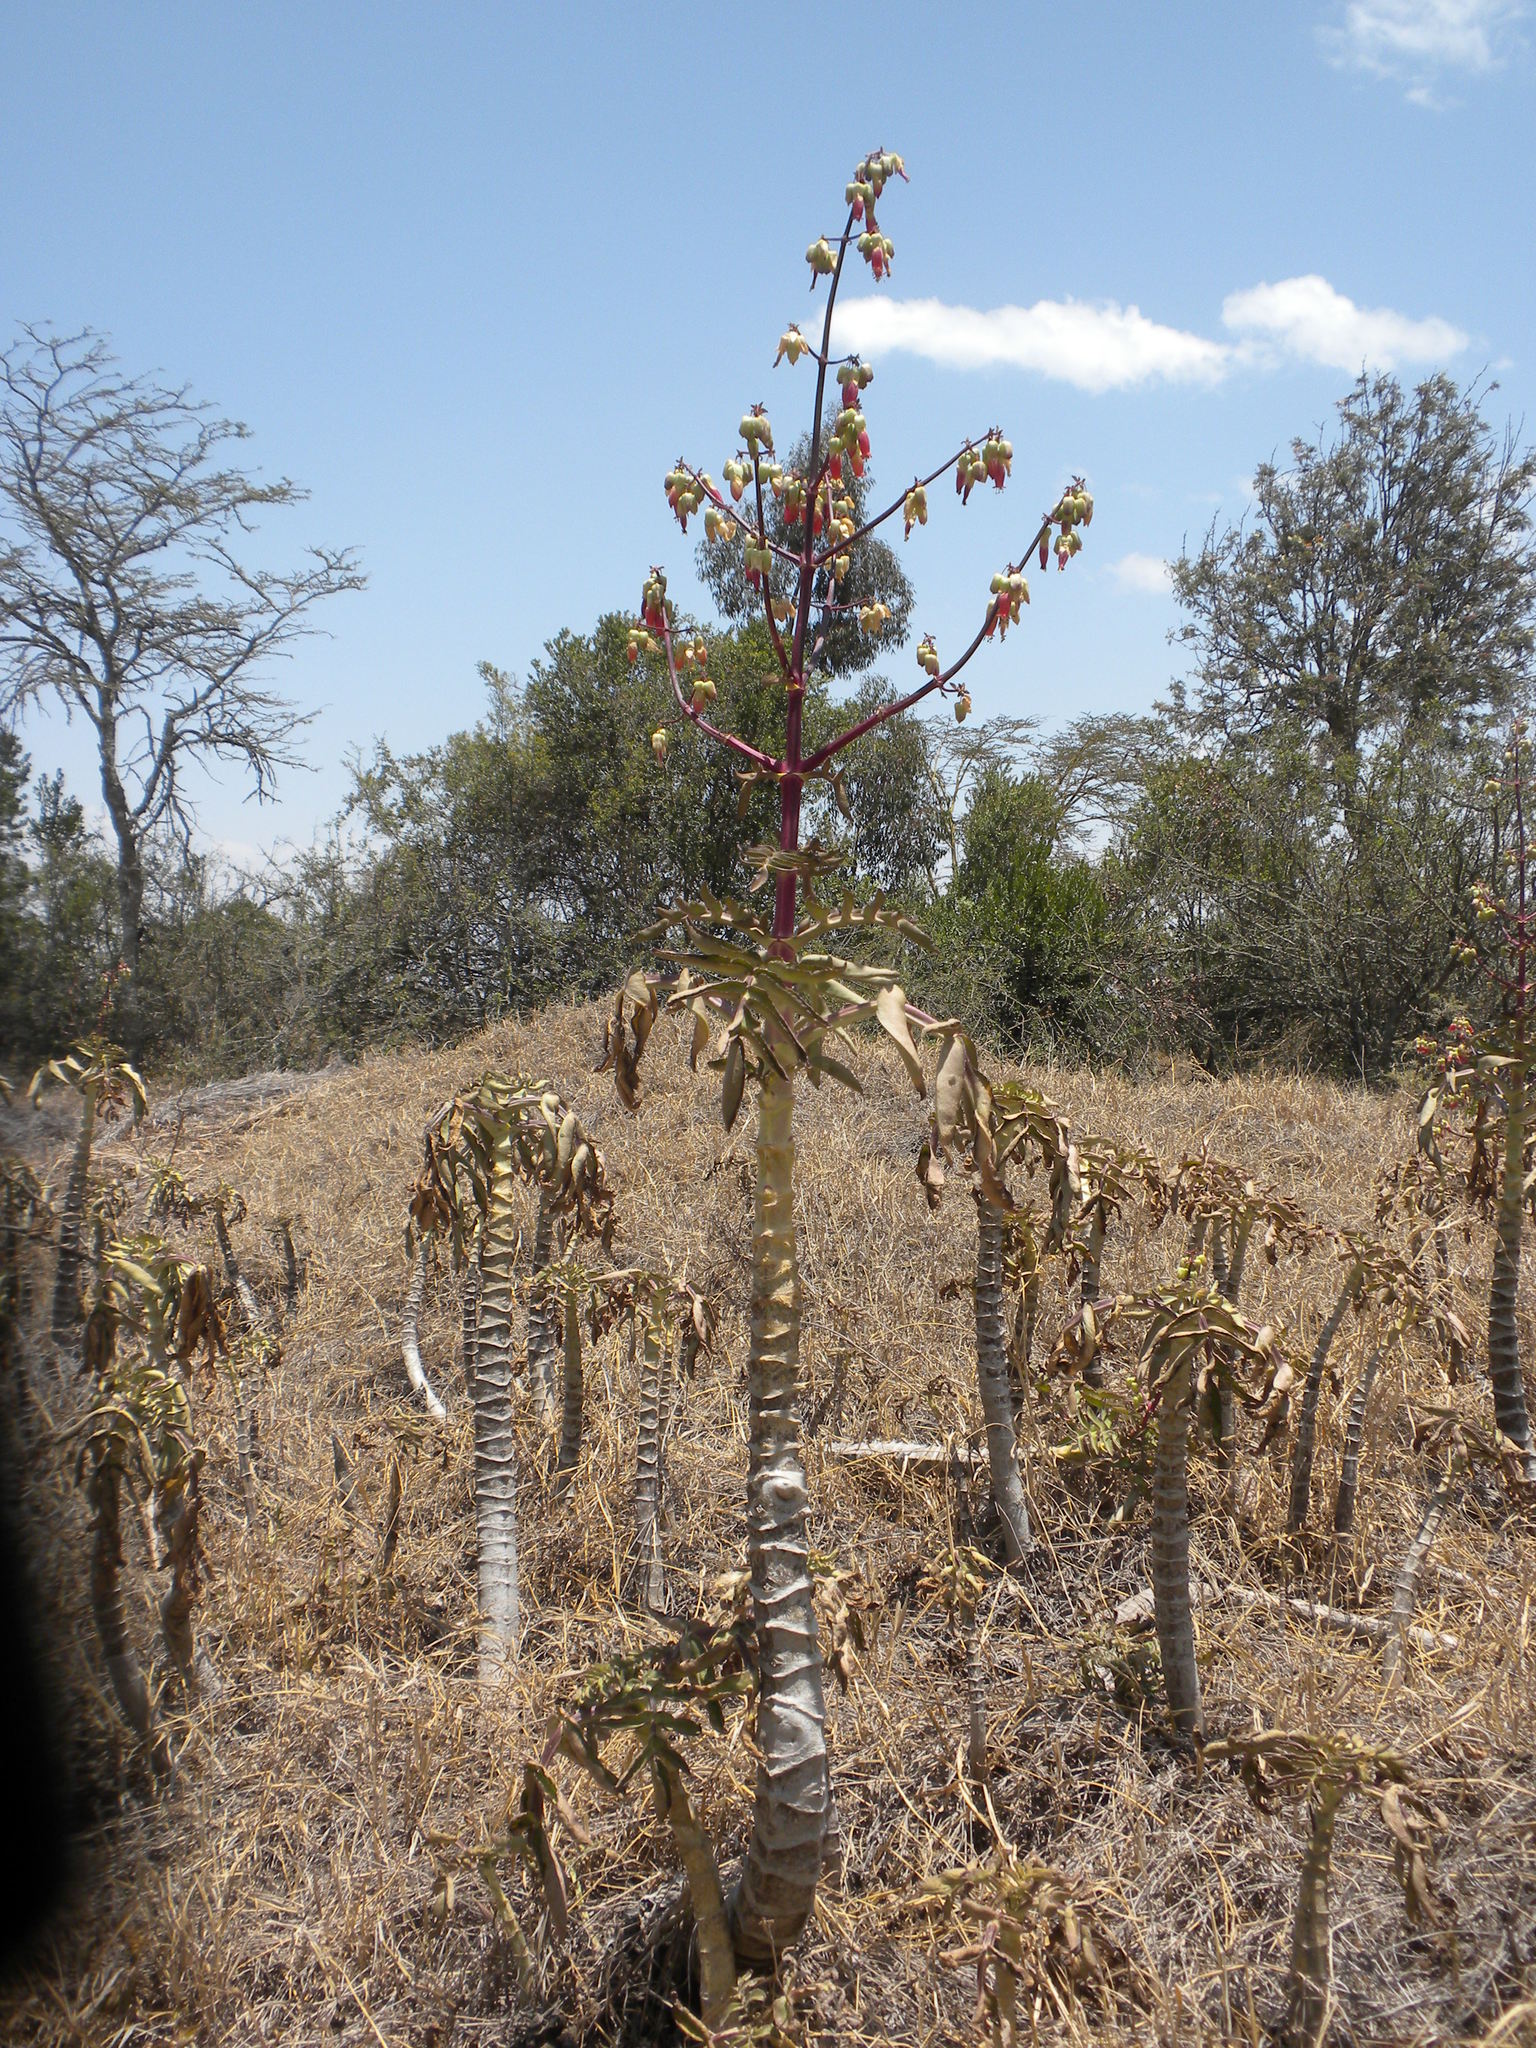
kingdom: Plantae
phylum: Tracheophyta
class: Magnoliopsida
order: Saxifragales
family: Crassulaceae
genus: Kalanchoe
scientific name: Kalanchoe prolifera
